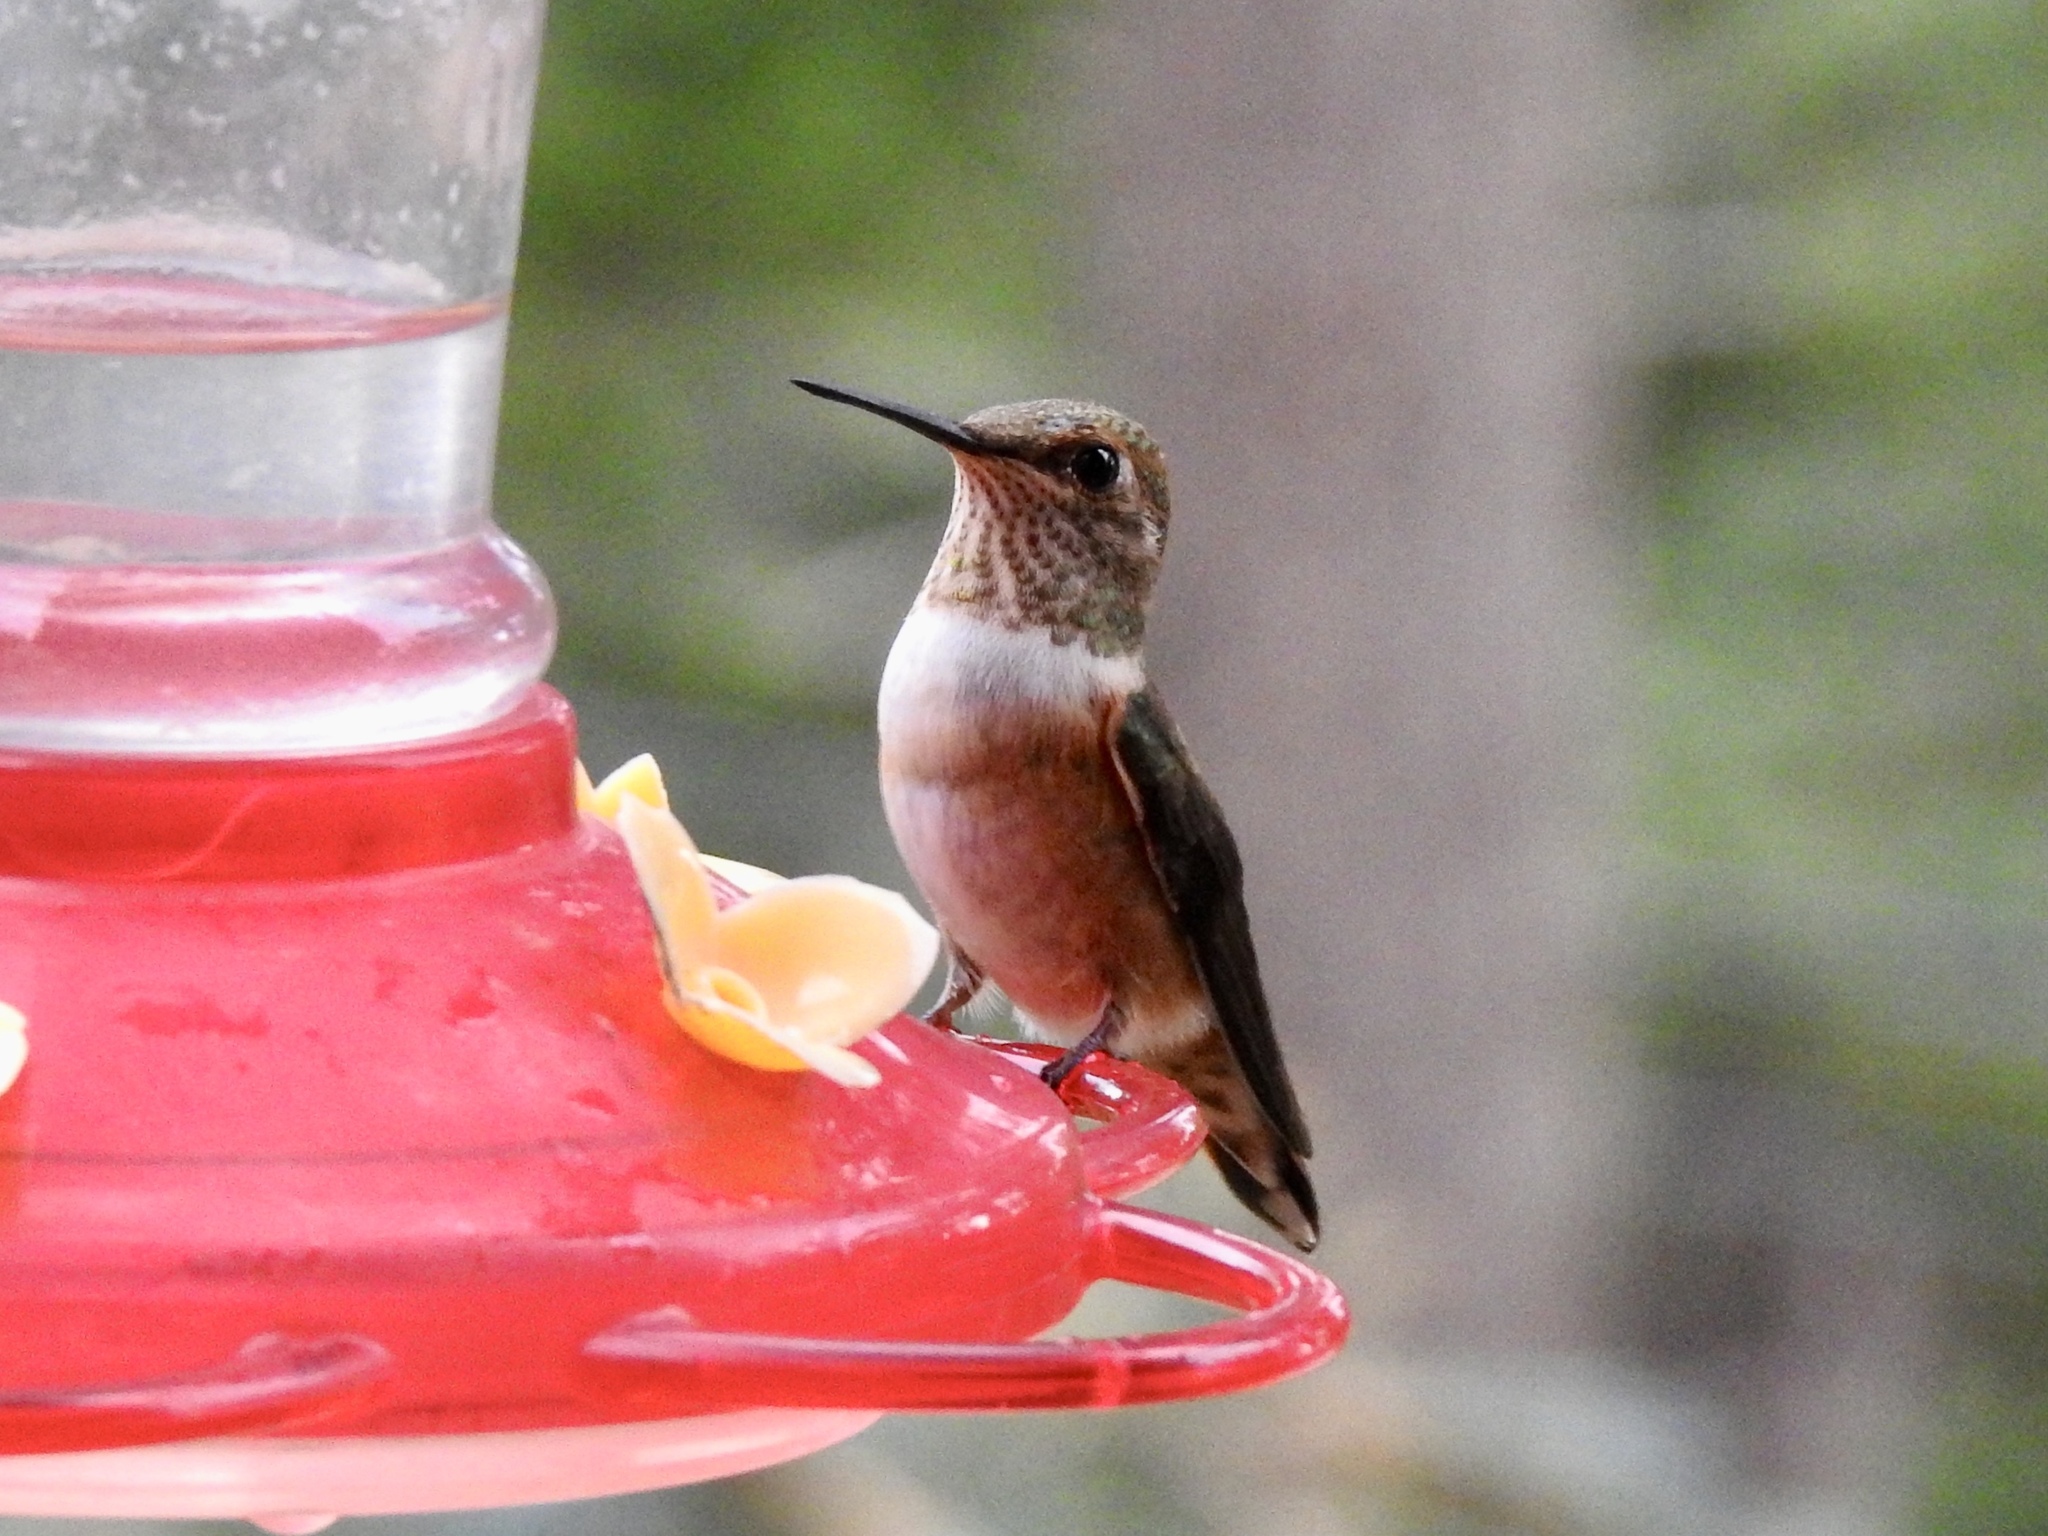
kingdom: Animalia
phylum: Chordata
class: Aves
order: Apodiformes
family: Trochilidae
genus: Selasphorus
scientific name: Selasphorus rufus
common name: Rufous hummingbird
